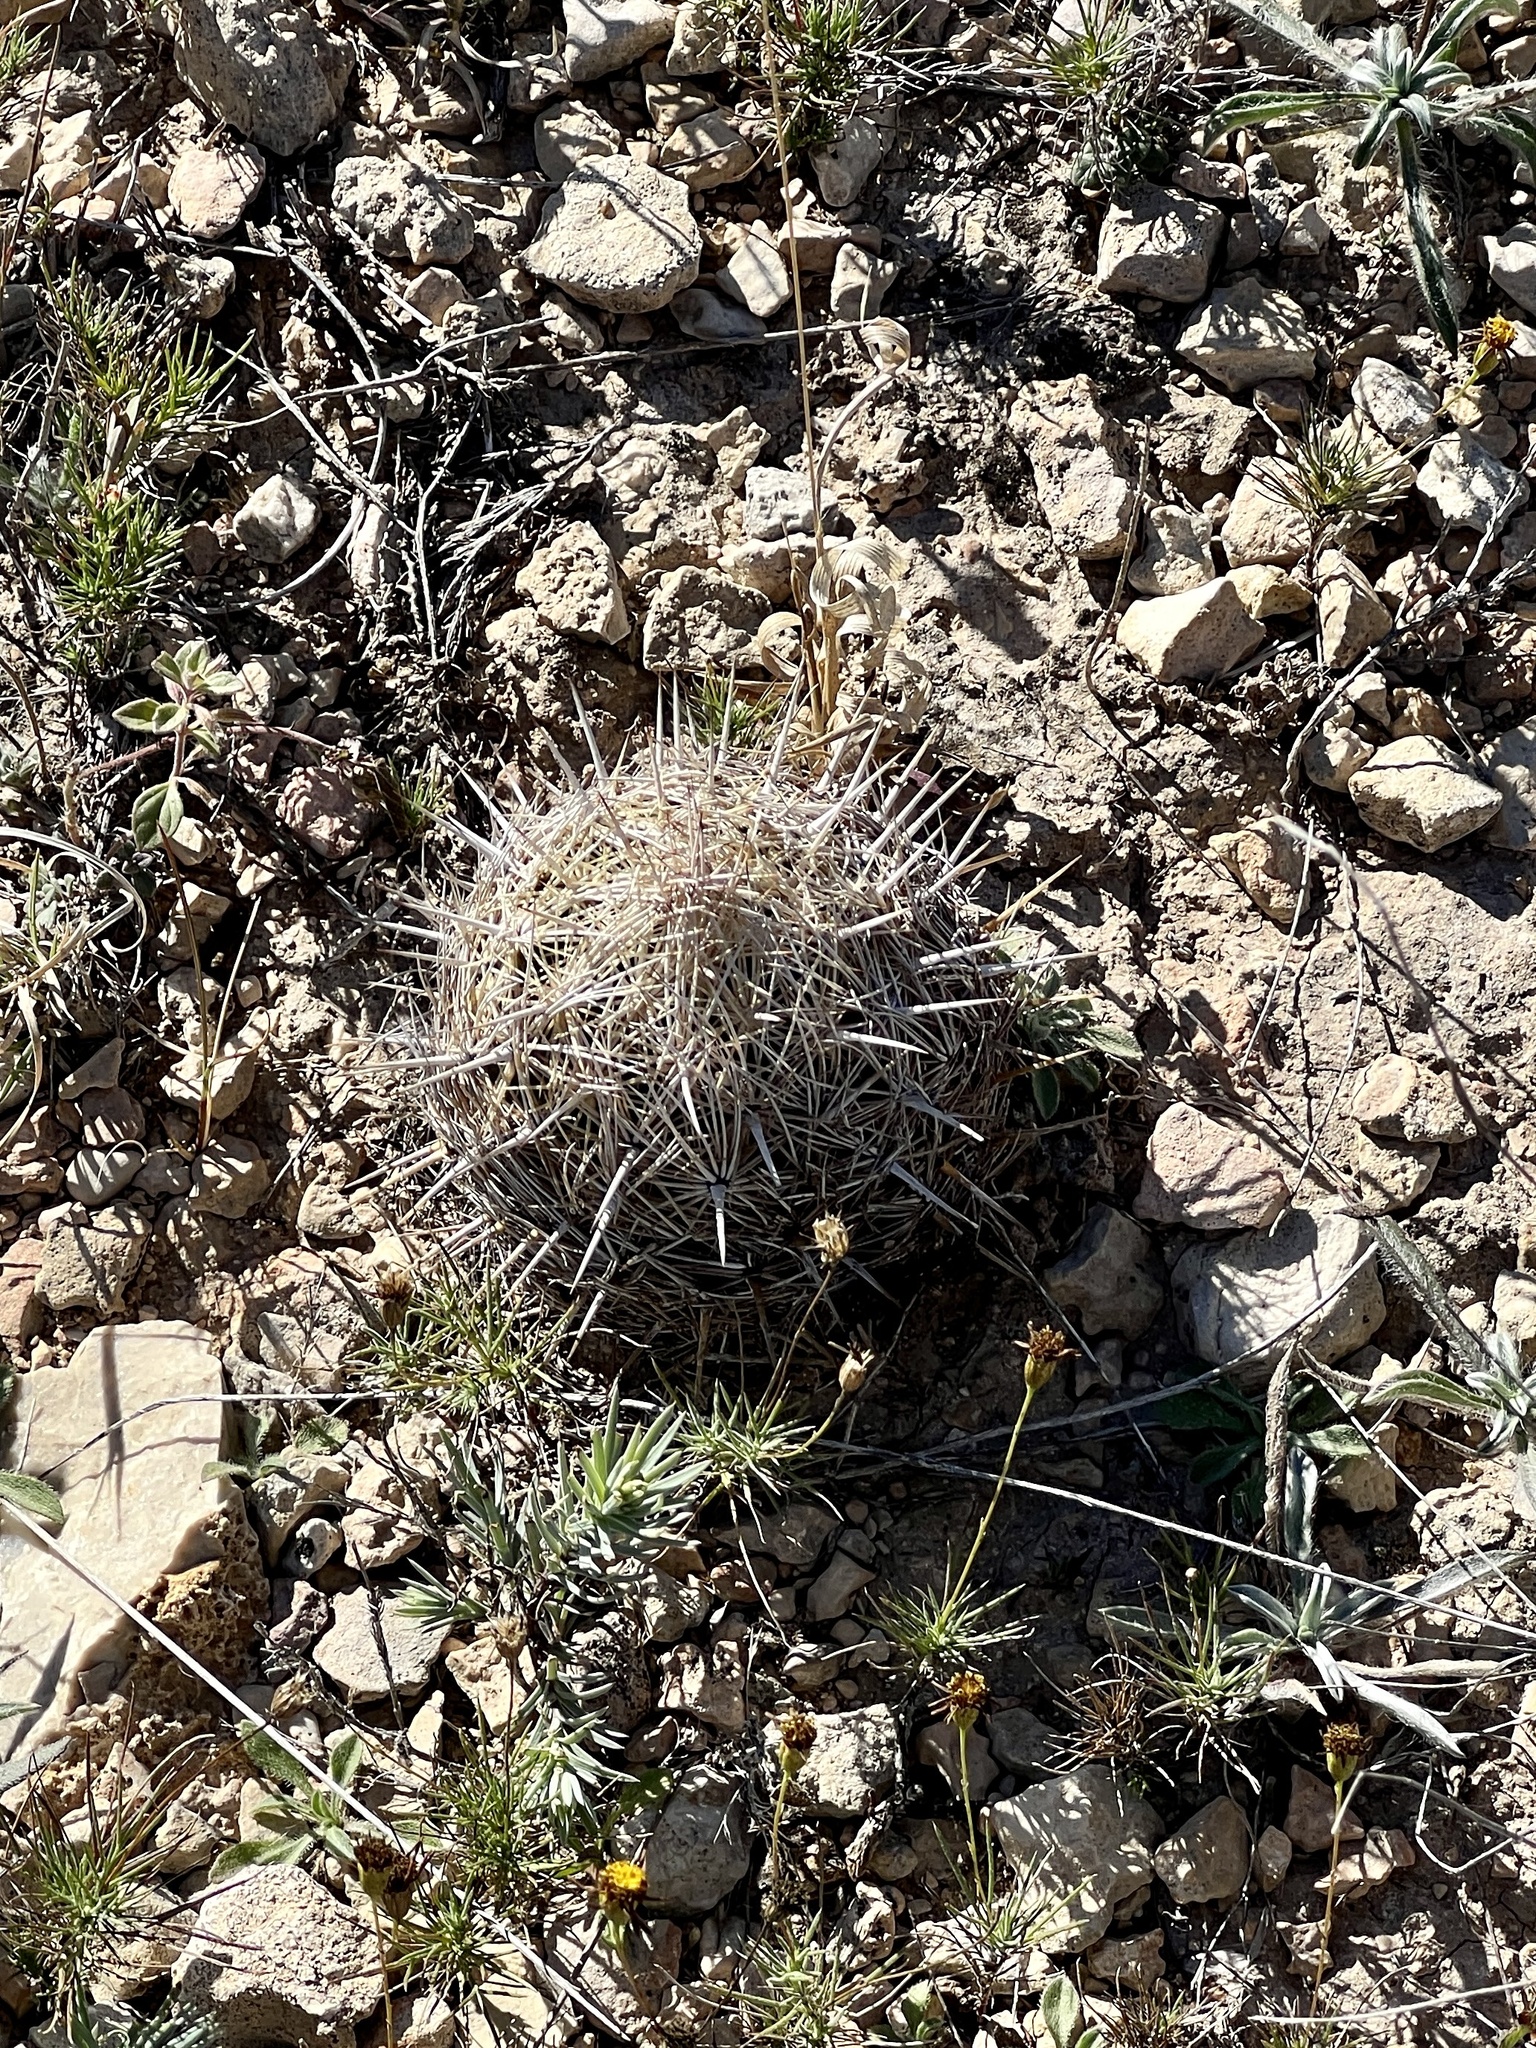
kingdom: Plantae
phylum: Tracheophyta
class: Magnoliopsida
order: Caryophyllales
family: Cactaceae
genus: Coryphantha
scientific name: Coryphantha echinus
